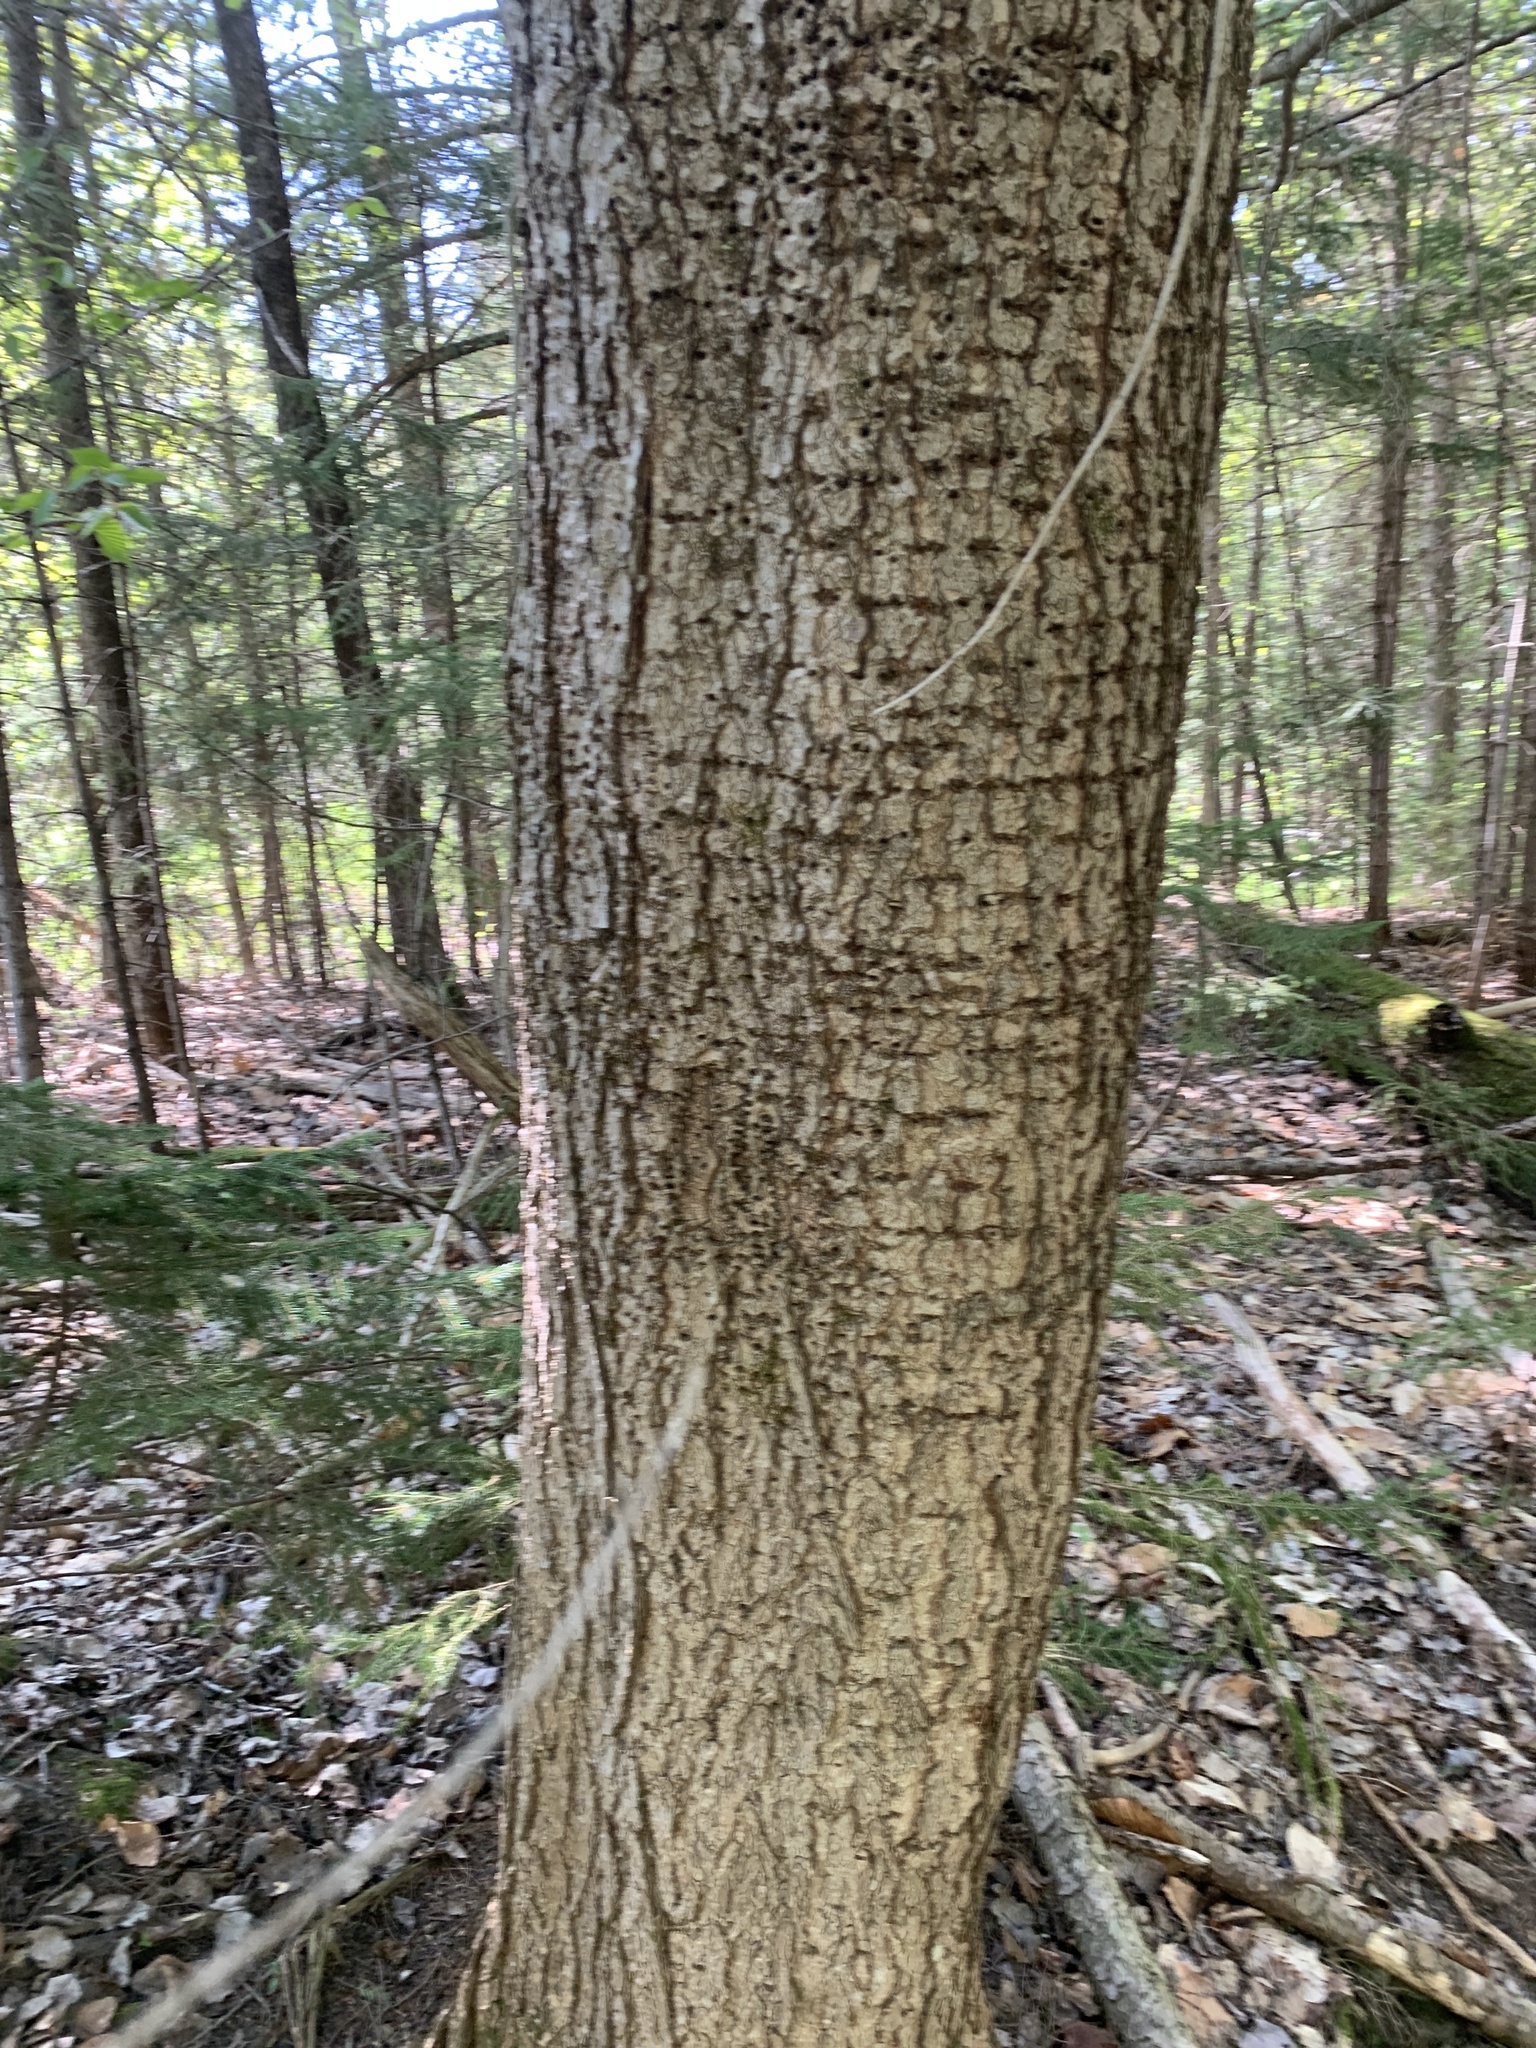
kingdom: Animalia
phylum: Chordata
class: Aves
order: Piciformes
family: Picidae
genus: Sphyrapicus
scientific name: Sphyrapicus varius
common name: Yellow-bellied sapsucker
